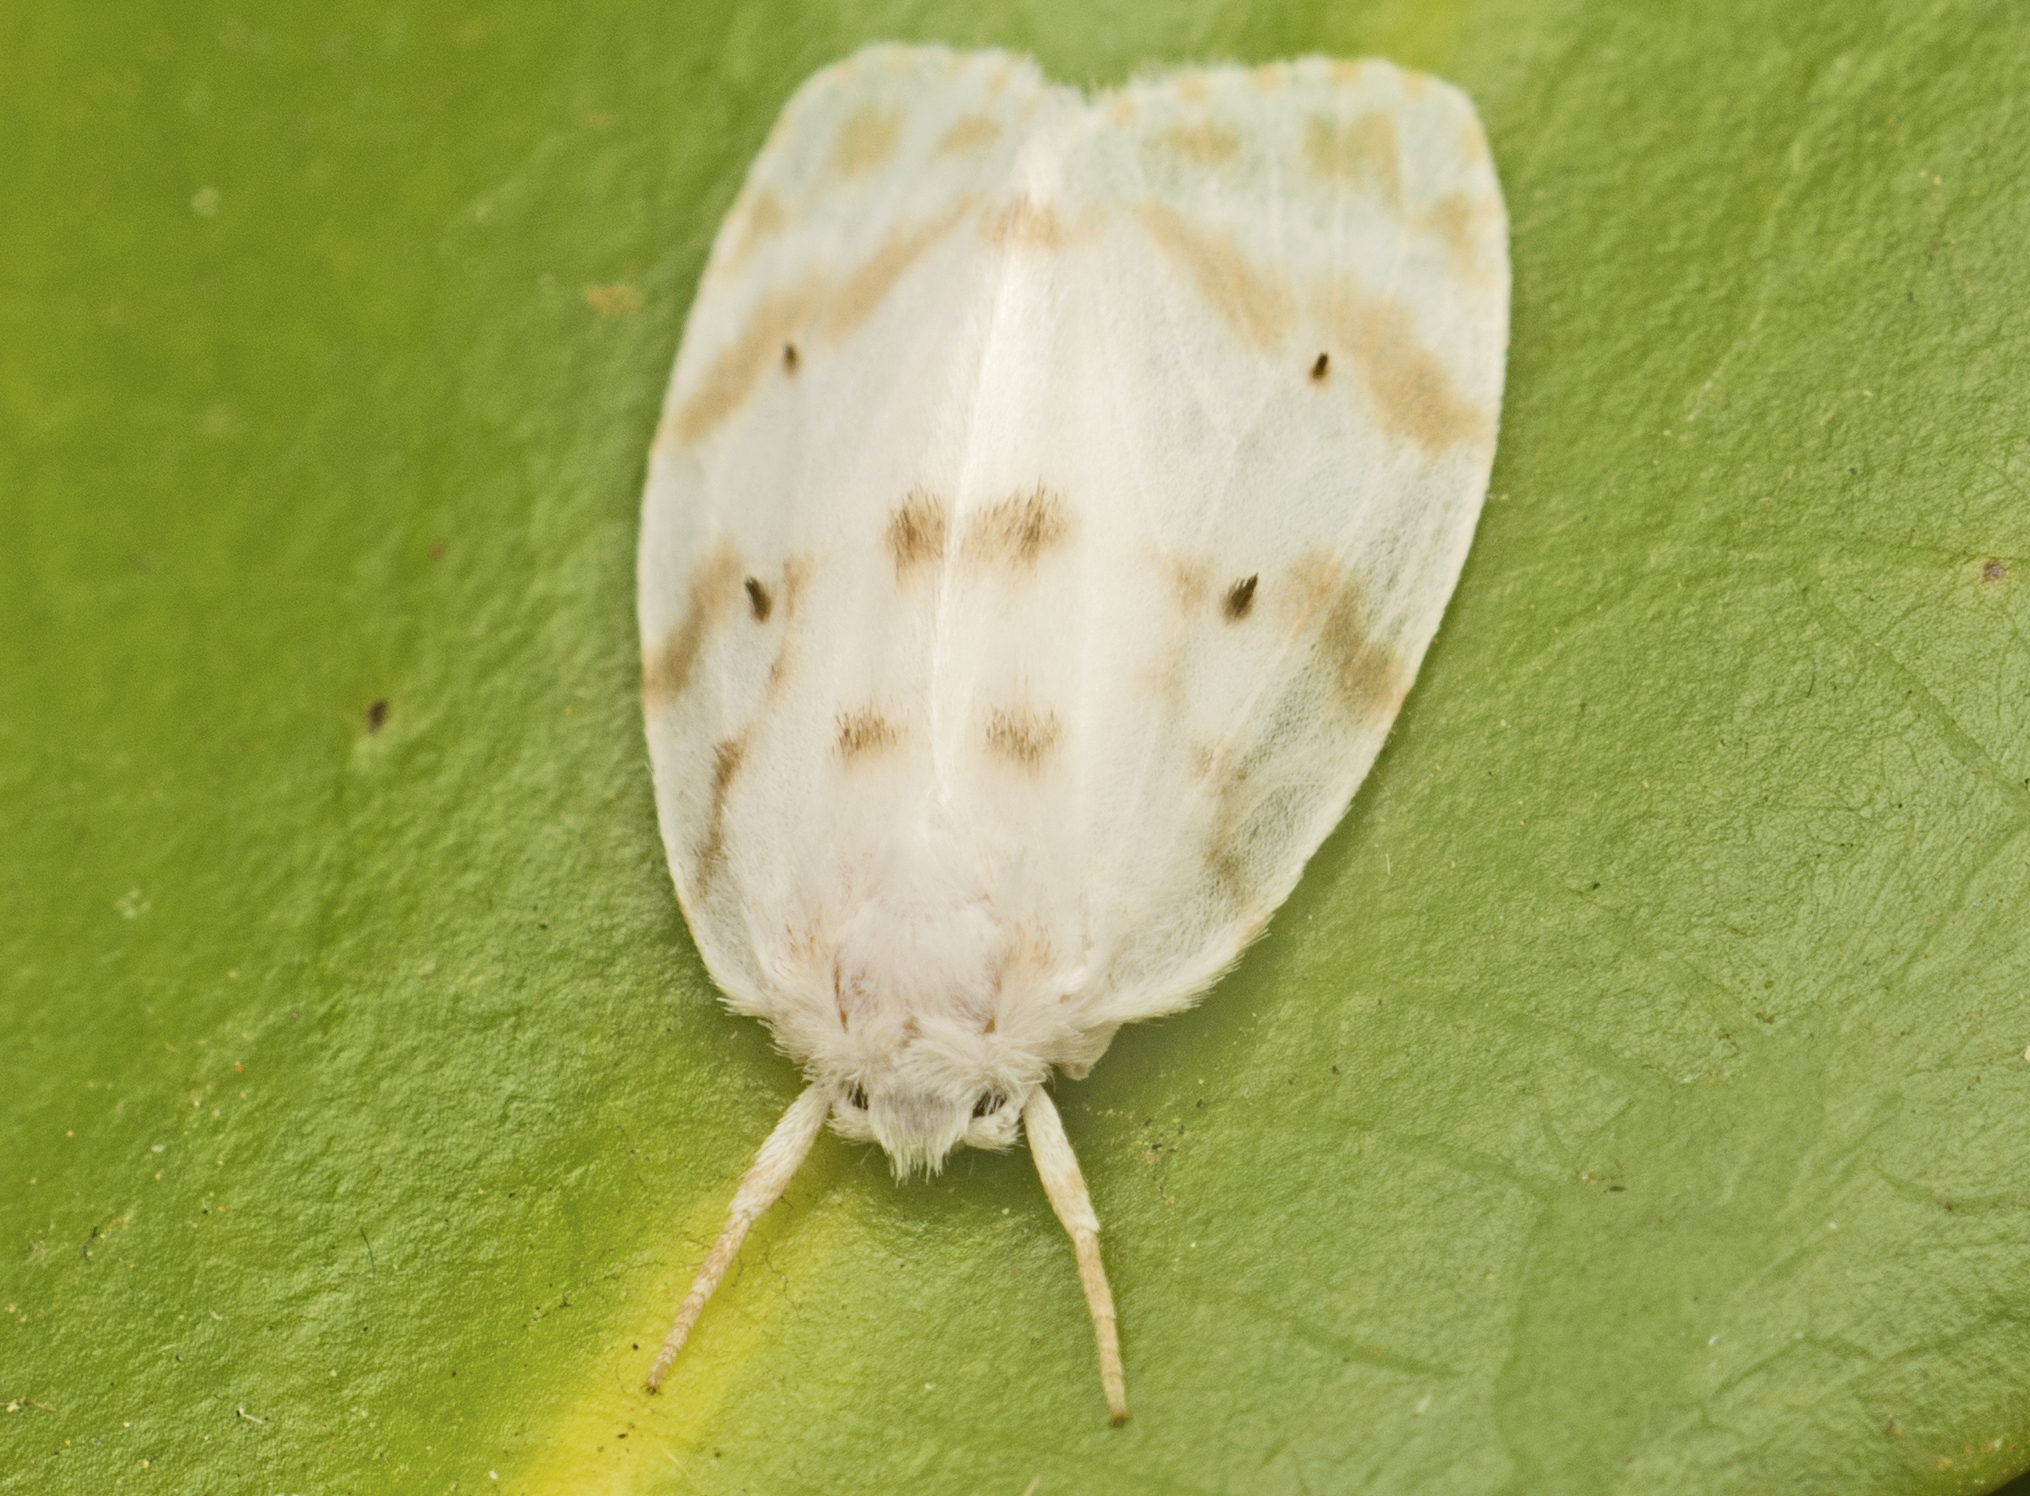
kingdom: Animalia
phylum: Arthropoda
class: Insecta
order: Lepidoptera
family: Erebidae
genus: Schistophleps
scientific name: Schistophleps albida
